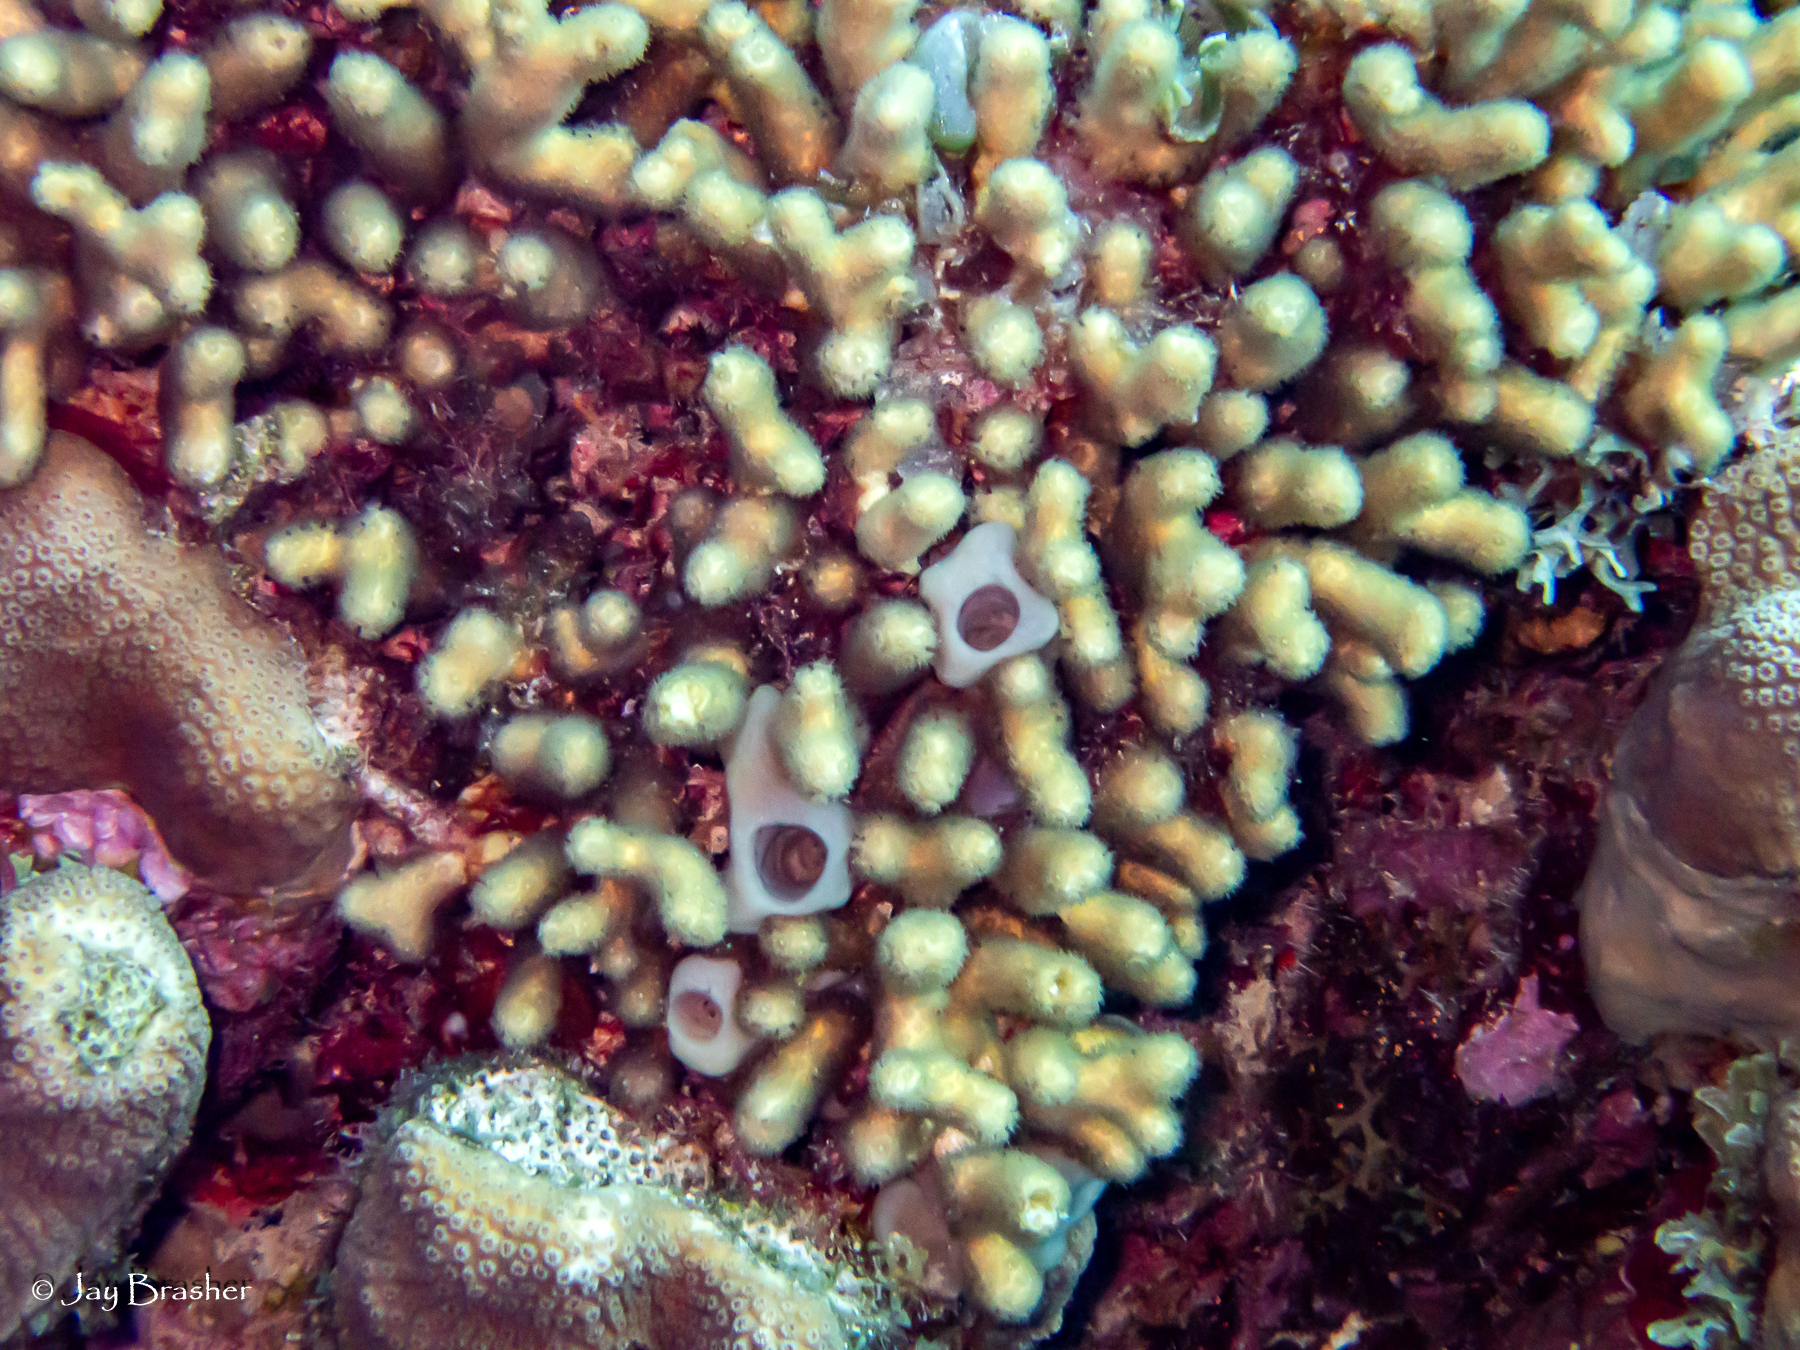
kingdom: Animalia
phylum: Cnidaria
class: Anthozoa
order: Scleractinia
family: Pocilloporidae
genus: Madracis
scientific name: Madracis auretenra
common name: Yellow pencil coral
